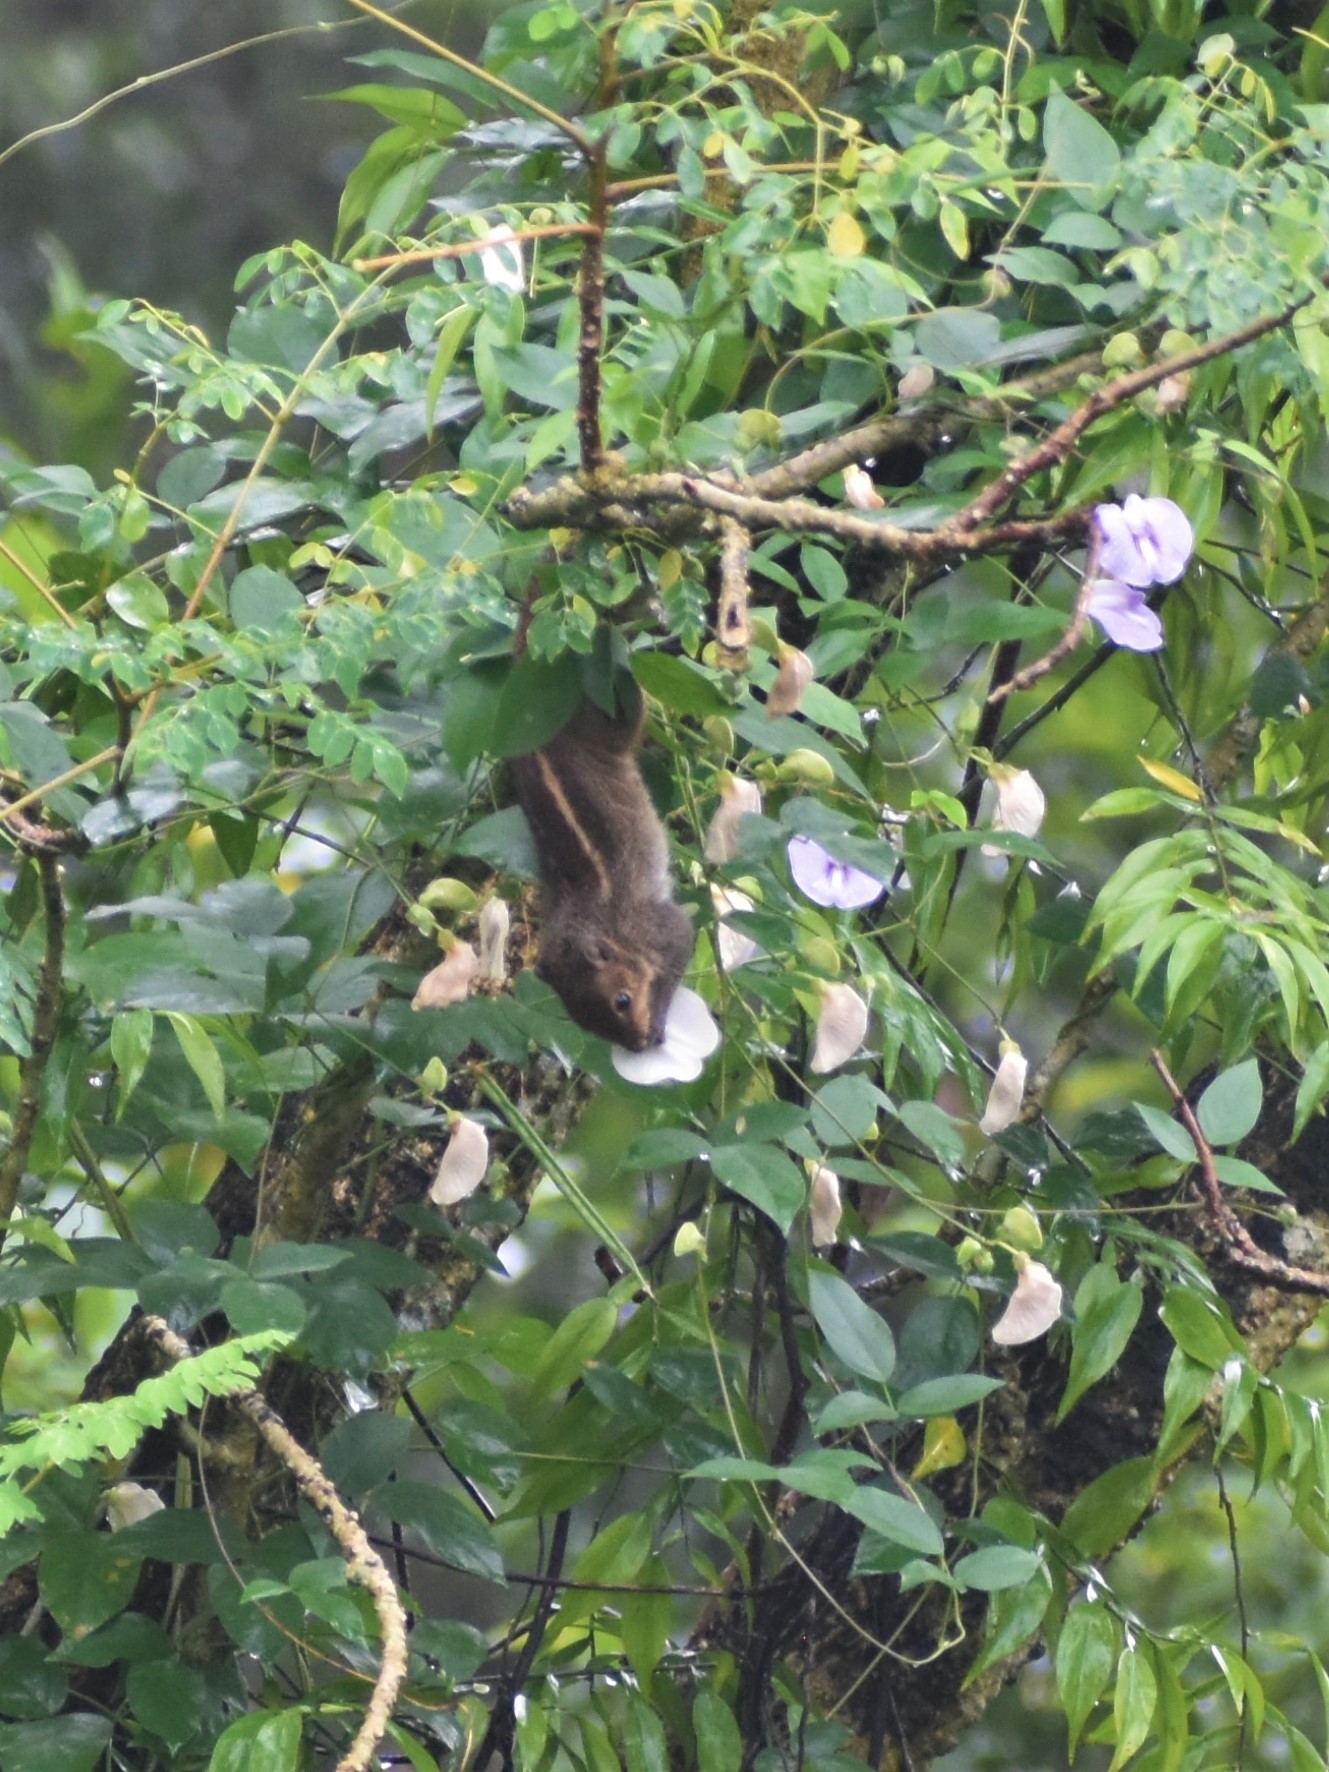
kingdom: Animalia
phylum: Chordata
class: Mammalia
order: Rodentia
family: Sciuridae
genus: Funambulus
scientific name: Funambulus tristriatus
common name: Jungle palm squirrel
